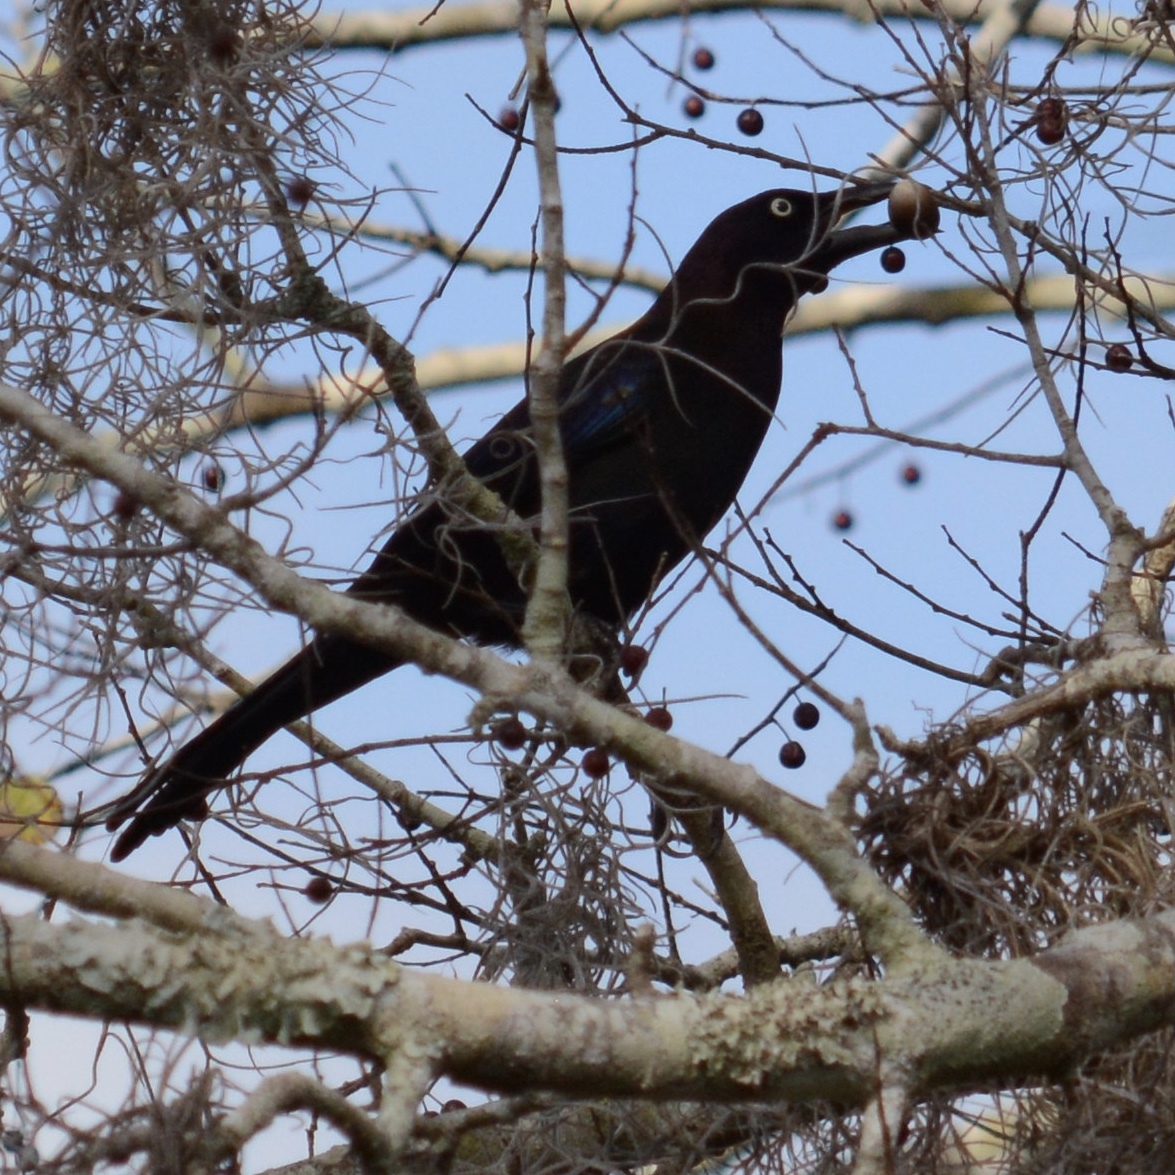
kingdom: Animalia
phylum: Chordata
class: Aves
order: Passeriformes
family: Icteridae
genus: Quiscalus
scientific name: Quiscalus quiscula
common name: Common grackle
